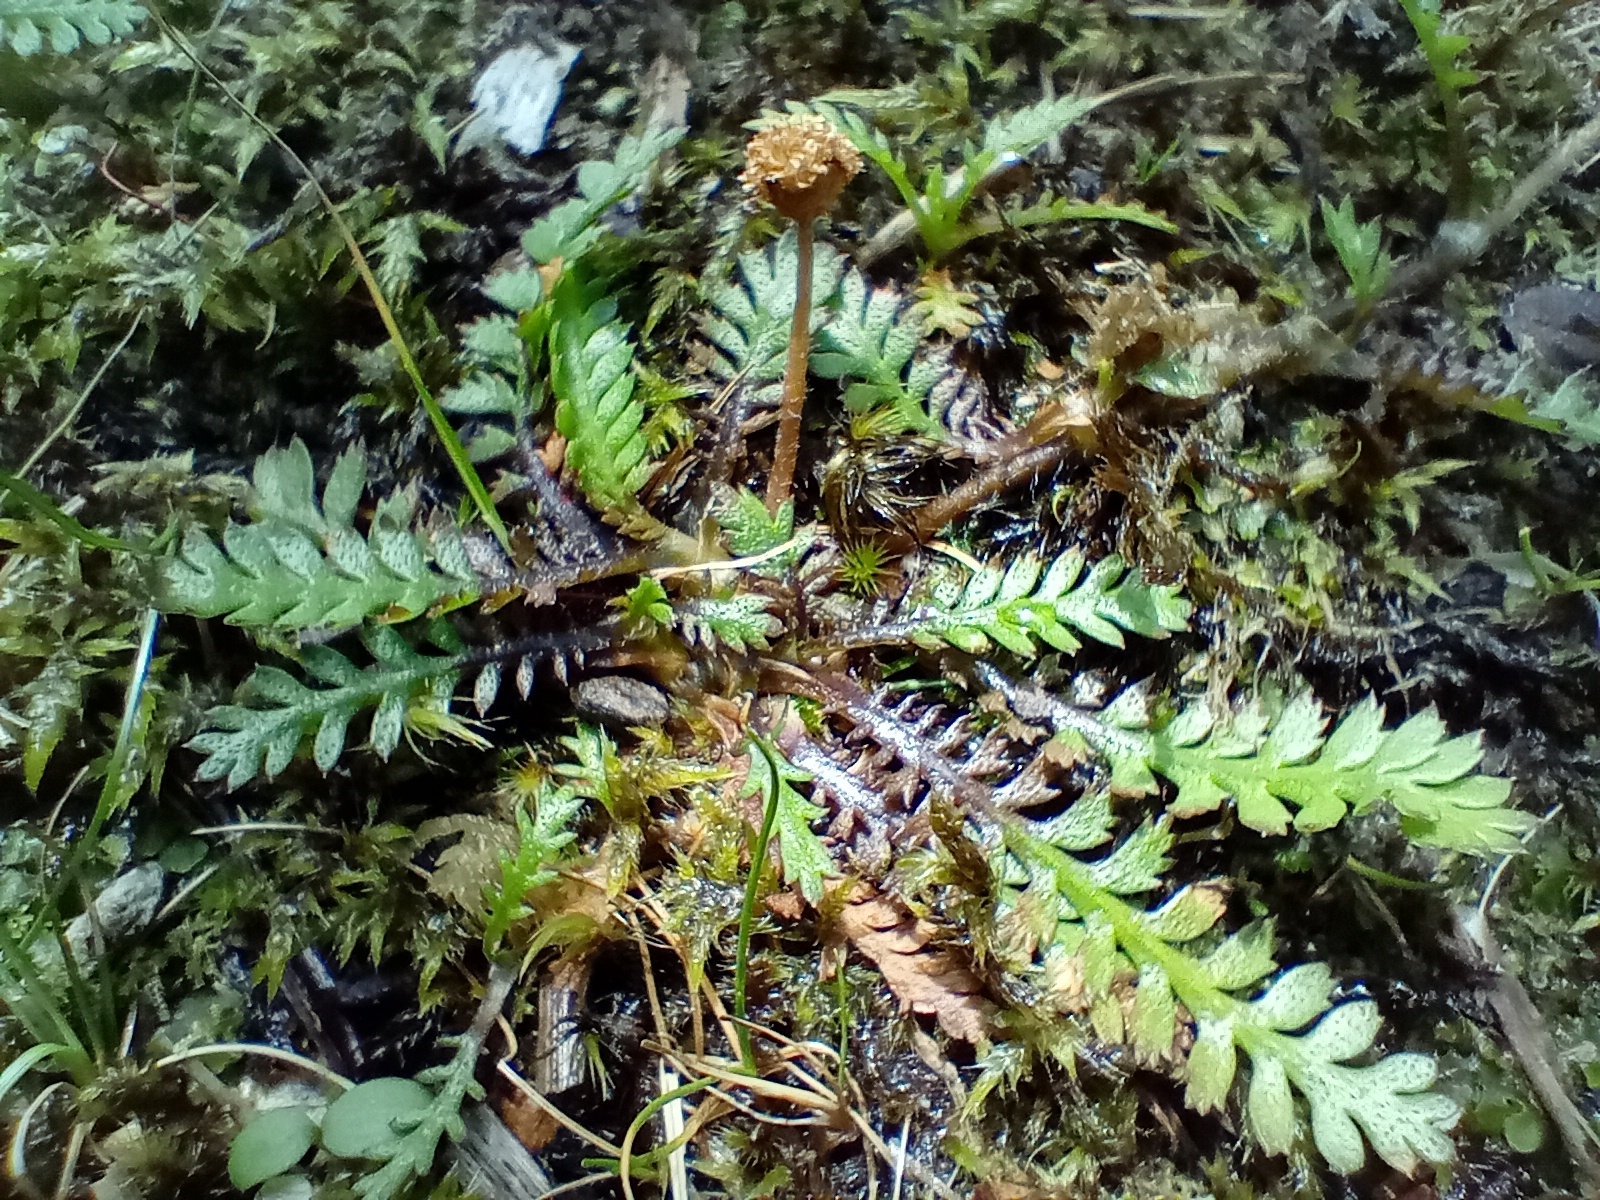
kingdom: Plantae
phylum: Tracheophyta
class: Magnoliopsida
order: Asterales
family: Asteraceae
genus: Leptinella
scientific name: Leptinella squalida
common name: New zealand brass-buttons
